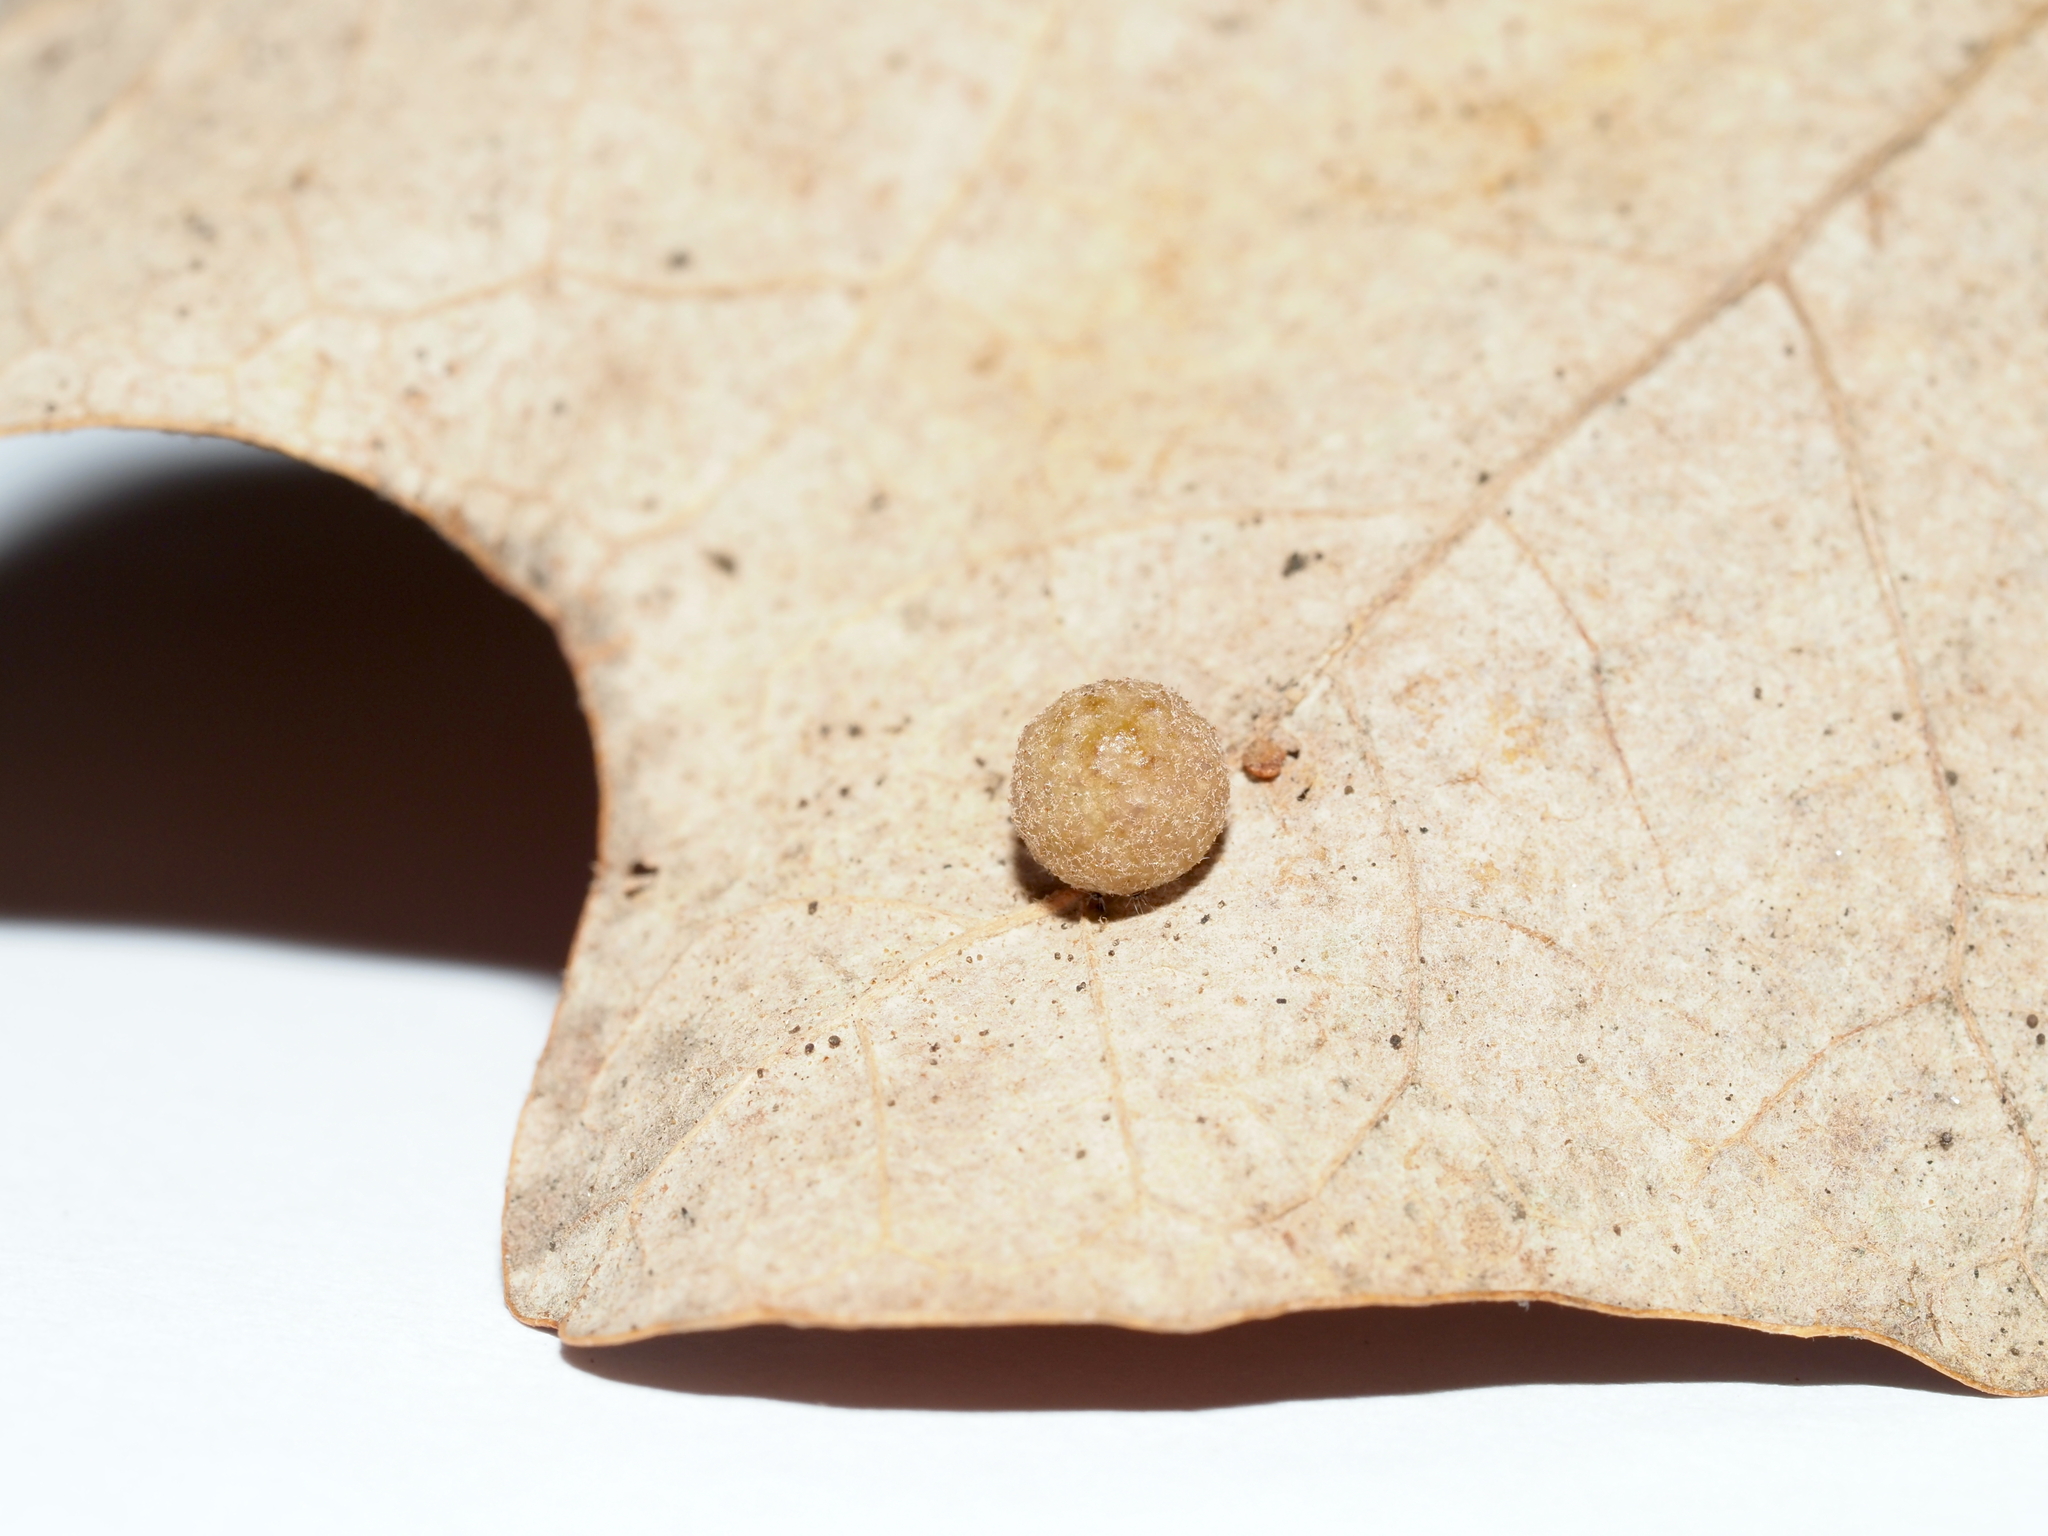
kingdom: Animalia
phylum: Arthropoda
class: Insecta
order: Hymenoptera
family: Cynipidae
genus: Atrusca
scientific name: Atrusca
